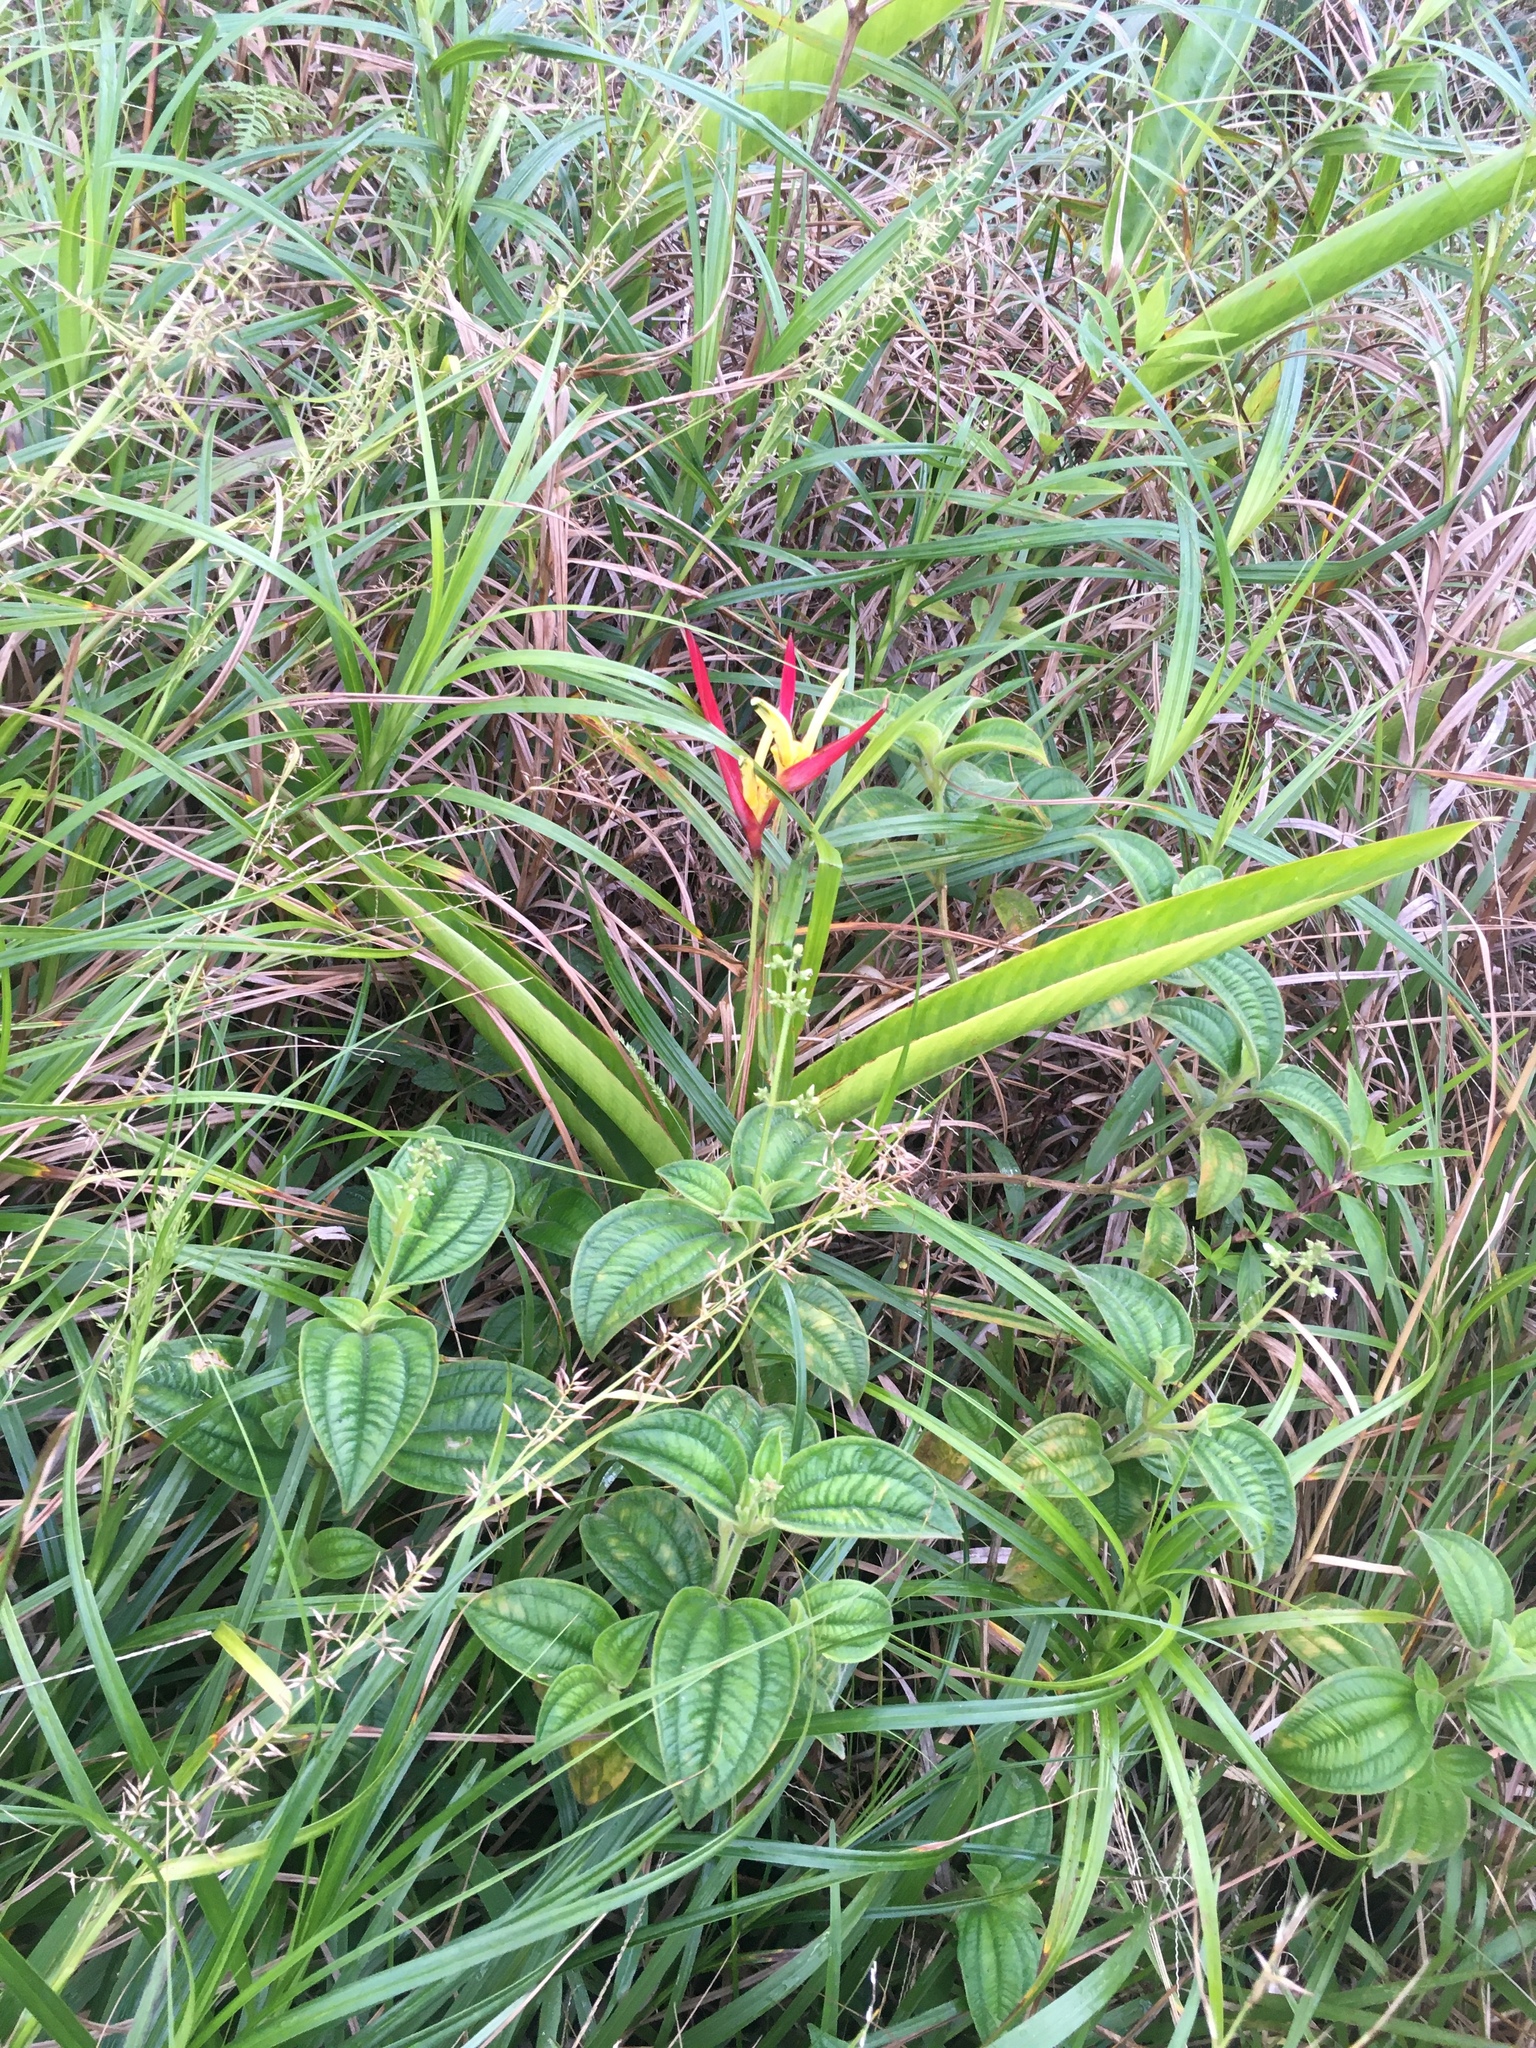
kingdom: Plantae
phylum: Tracheophyta
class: Liliopsida
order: Zingiberales
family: Heliconiaceae
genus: Heliconia
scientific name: Heliconia psittacorum
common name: Parrot's-flower
